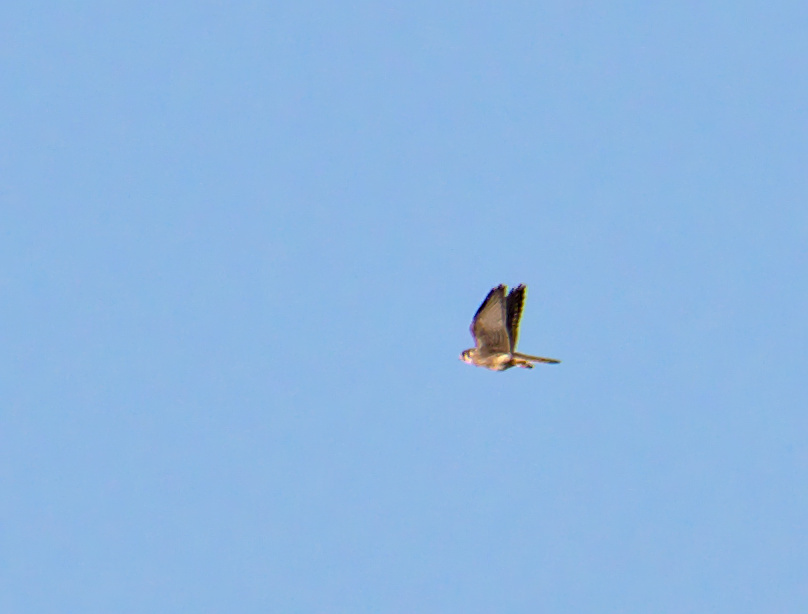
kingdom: Animalia
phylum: Chordata
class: Aves
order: Falconiformes
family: Falconidae
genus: Falco
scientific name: Falco sparverius
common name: American kestrel
